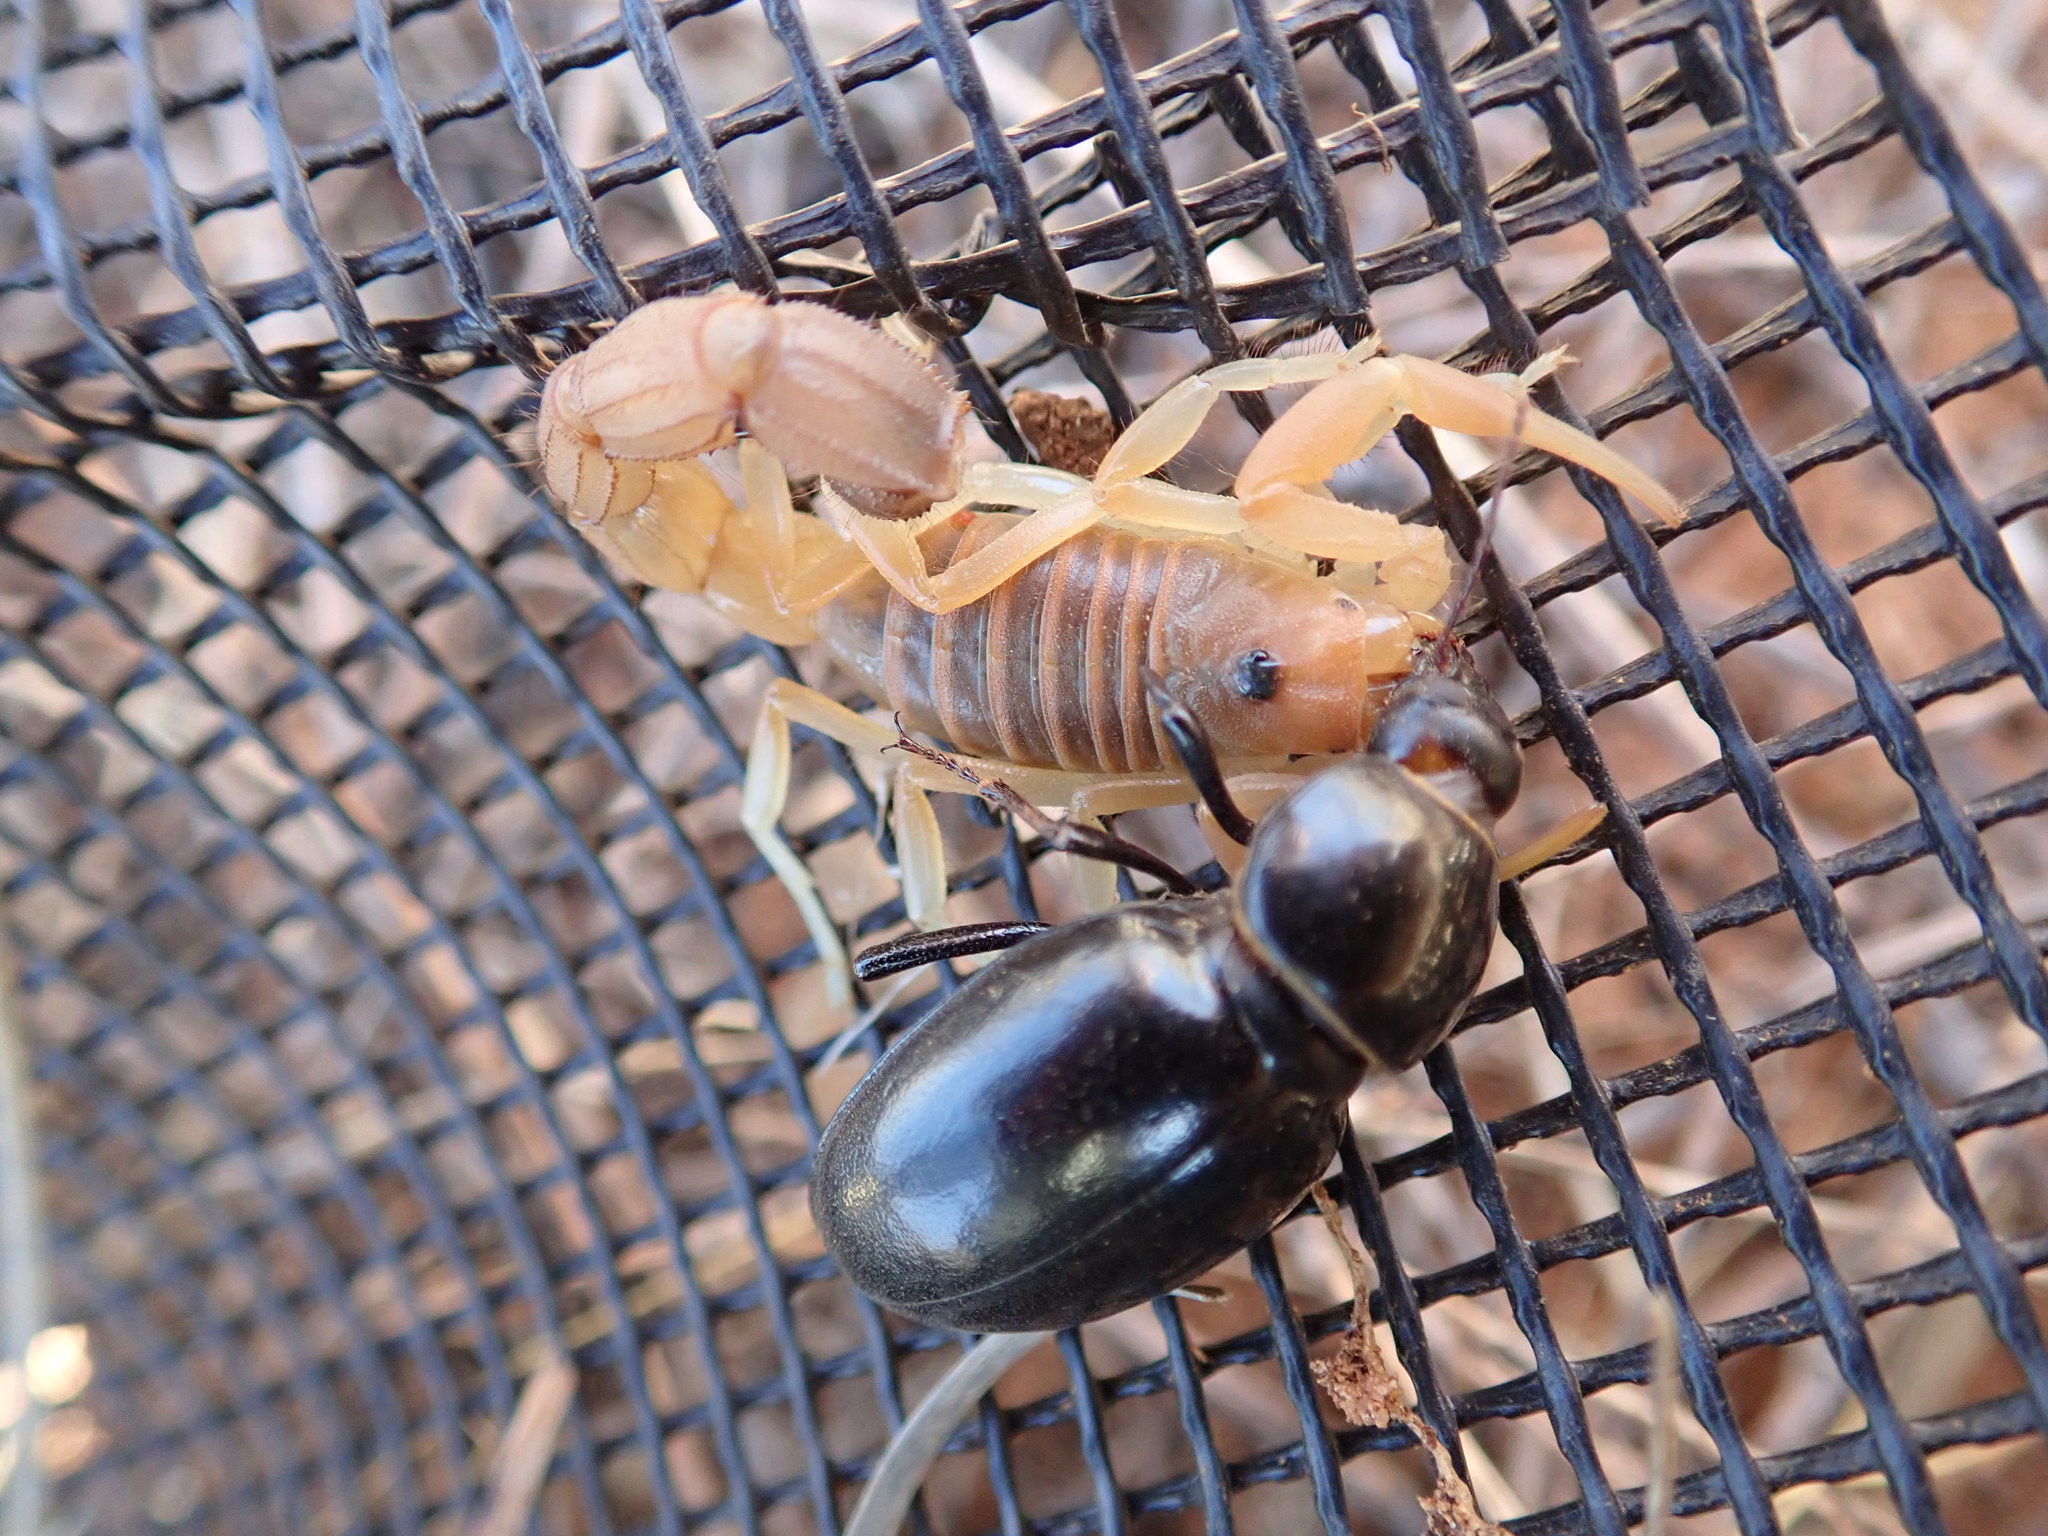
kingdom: Animalia
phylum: Arthropoda
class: Arachnida
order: Scorpiones
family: Buthidae
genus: Parabuthus
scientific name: Parabuthus raudus
